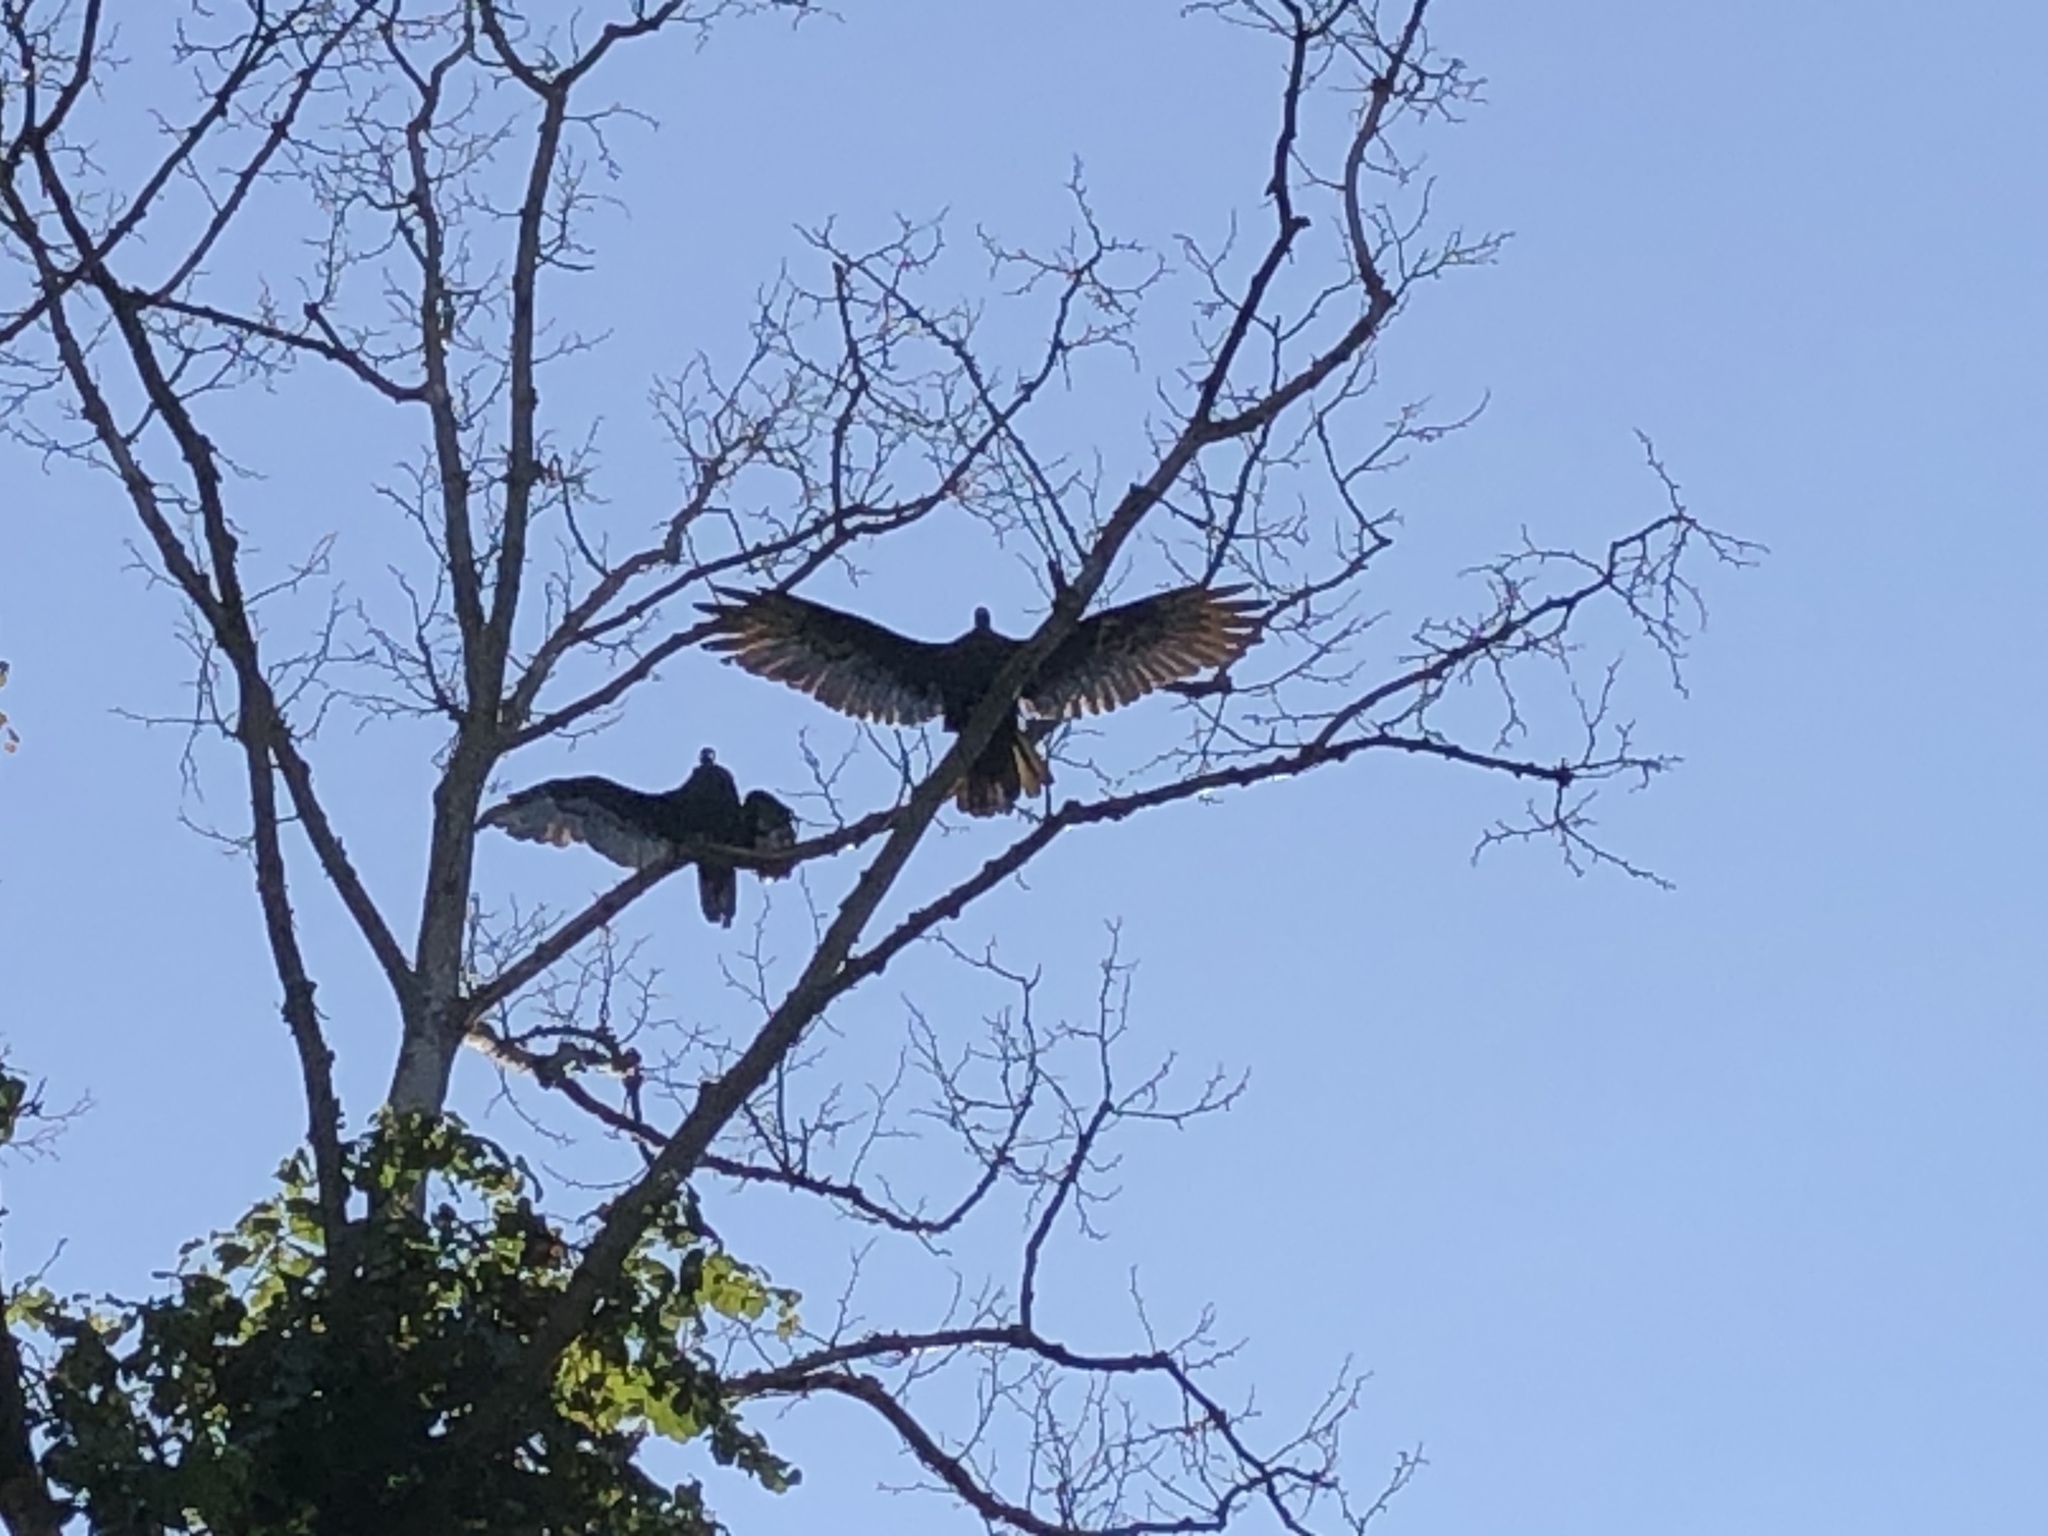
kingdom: Animalia
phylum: Chordata
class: Aves
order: Accipitriformes
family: Cathartidae
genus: Cathartes
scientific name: Cathartes aura
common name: Turkey vulture
